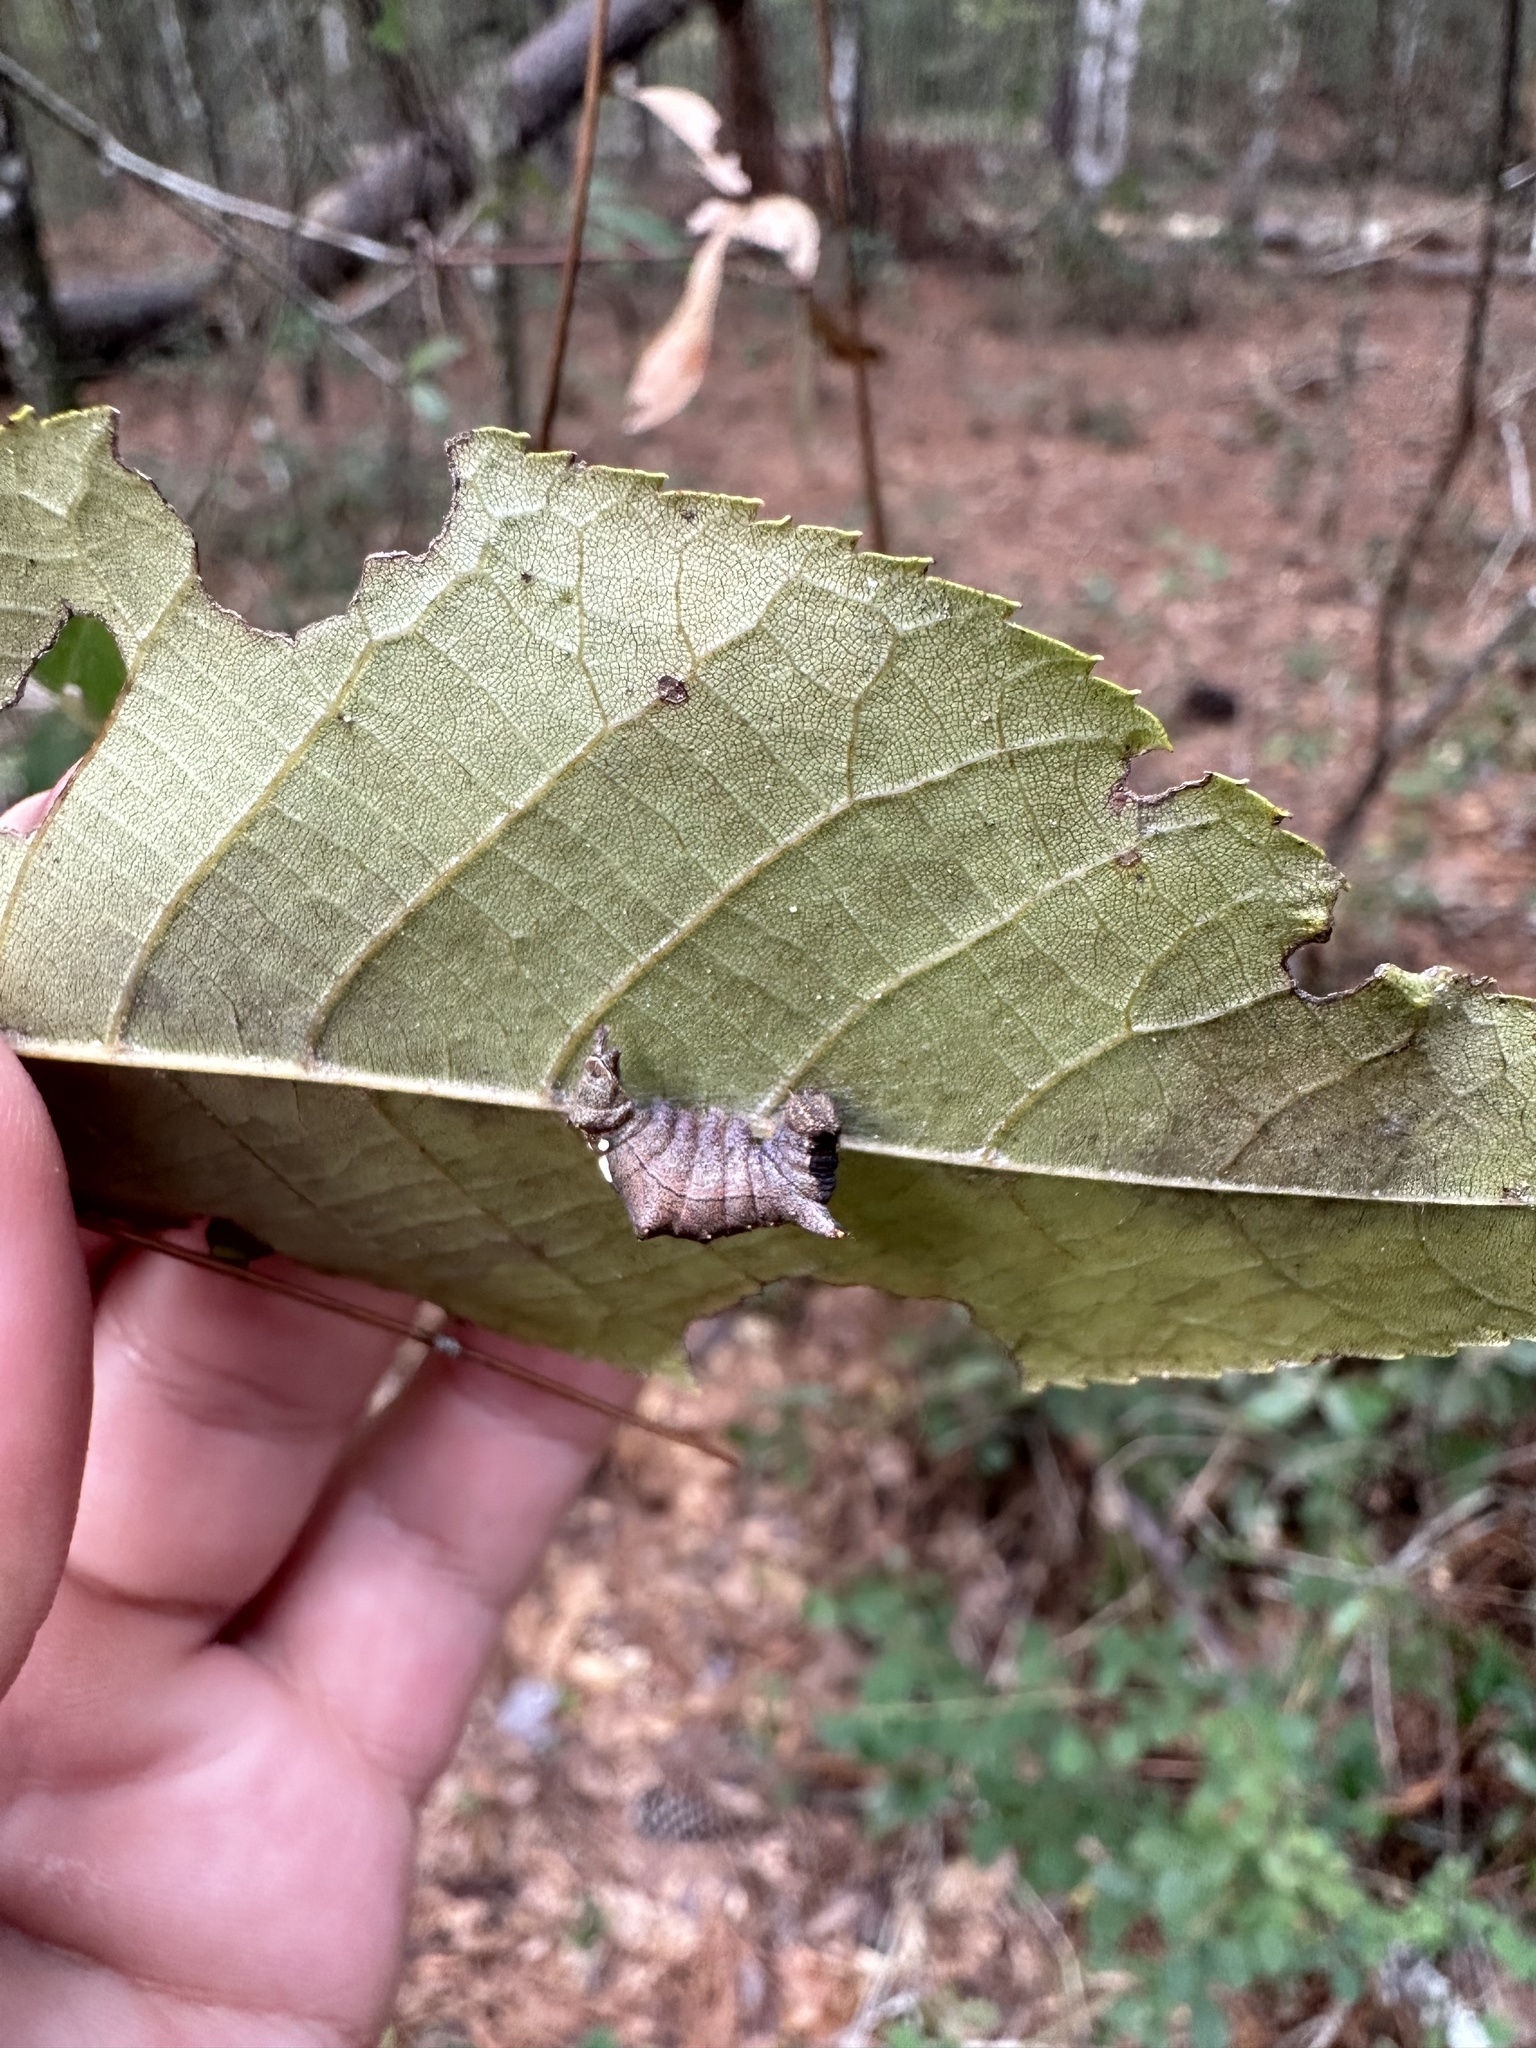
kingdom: Animalia
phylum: Arthropoda
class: Insecta
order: Lepidoptera
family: Notodontidae
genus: Schizura
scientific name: Schizura
